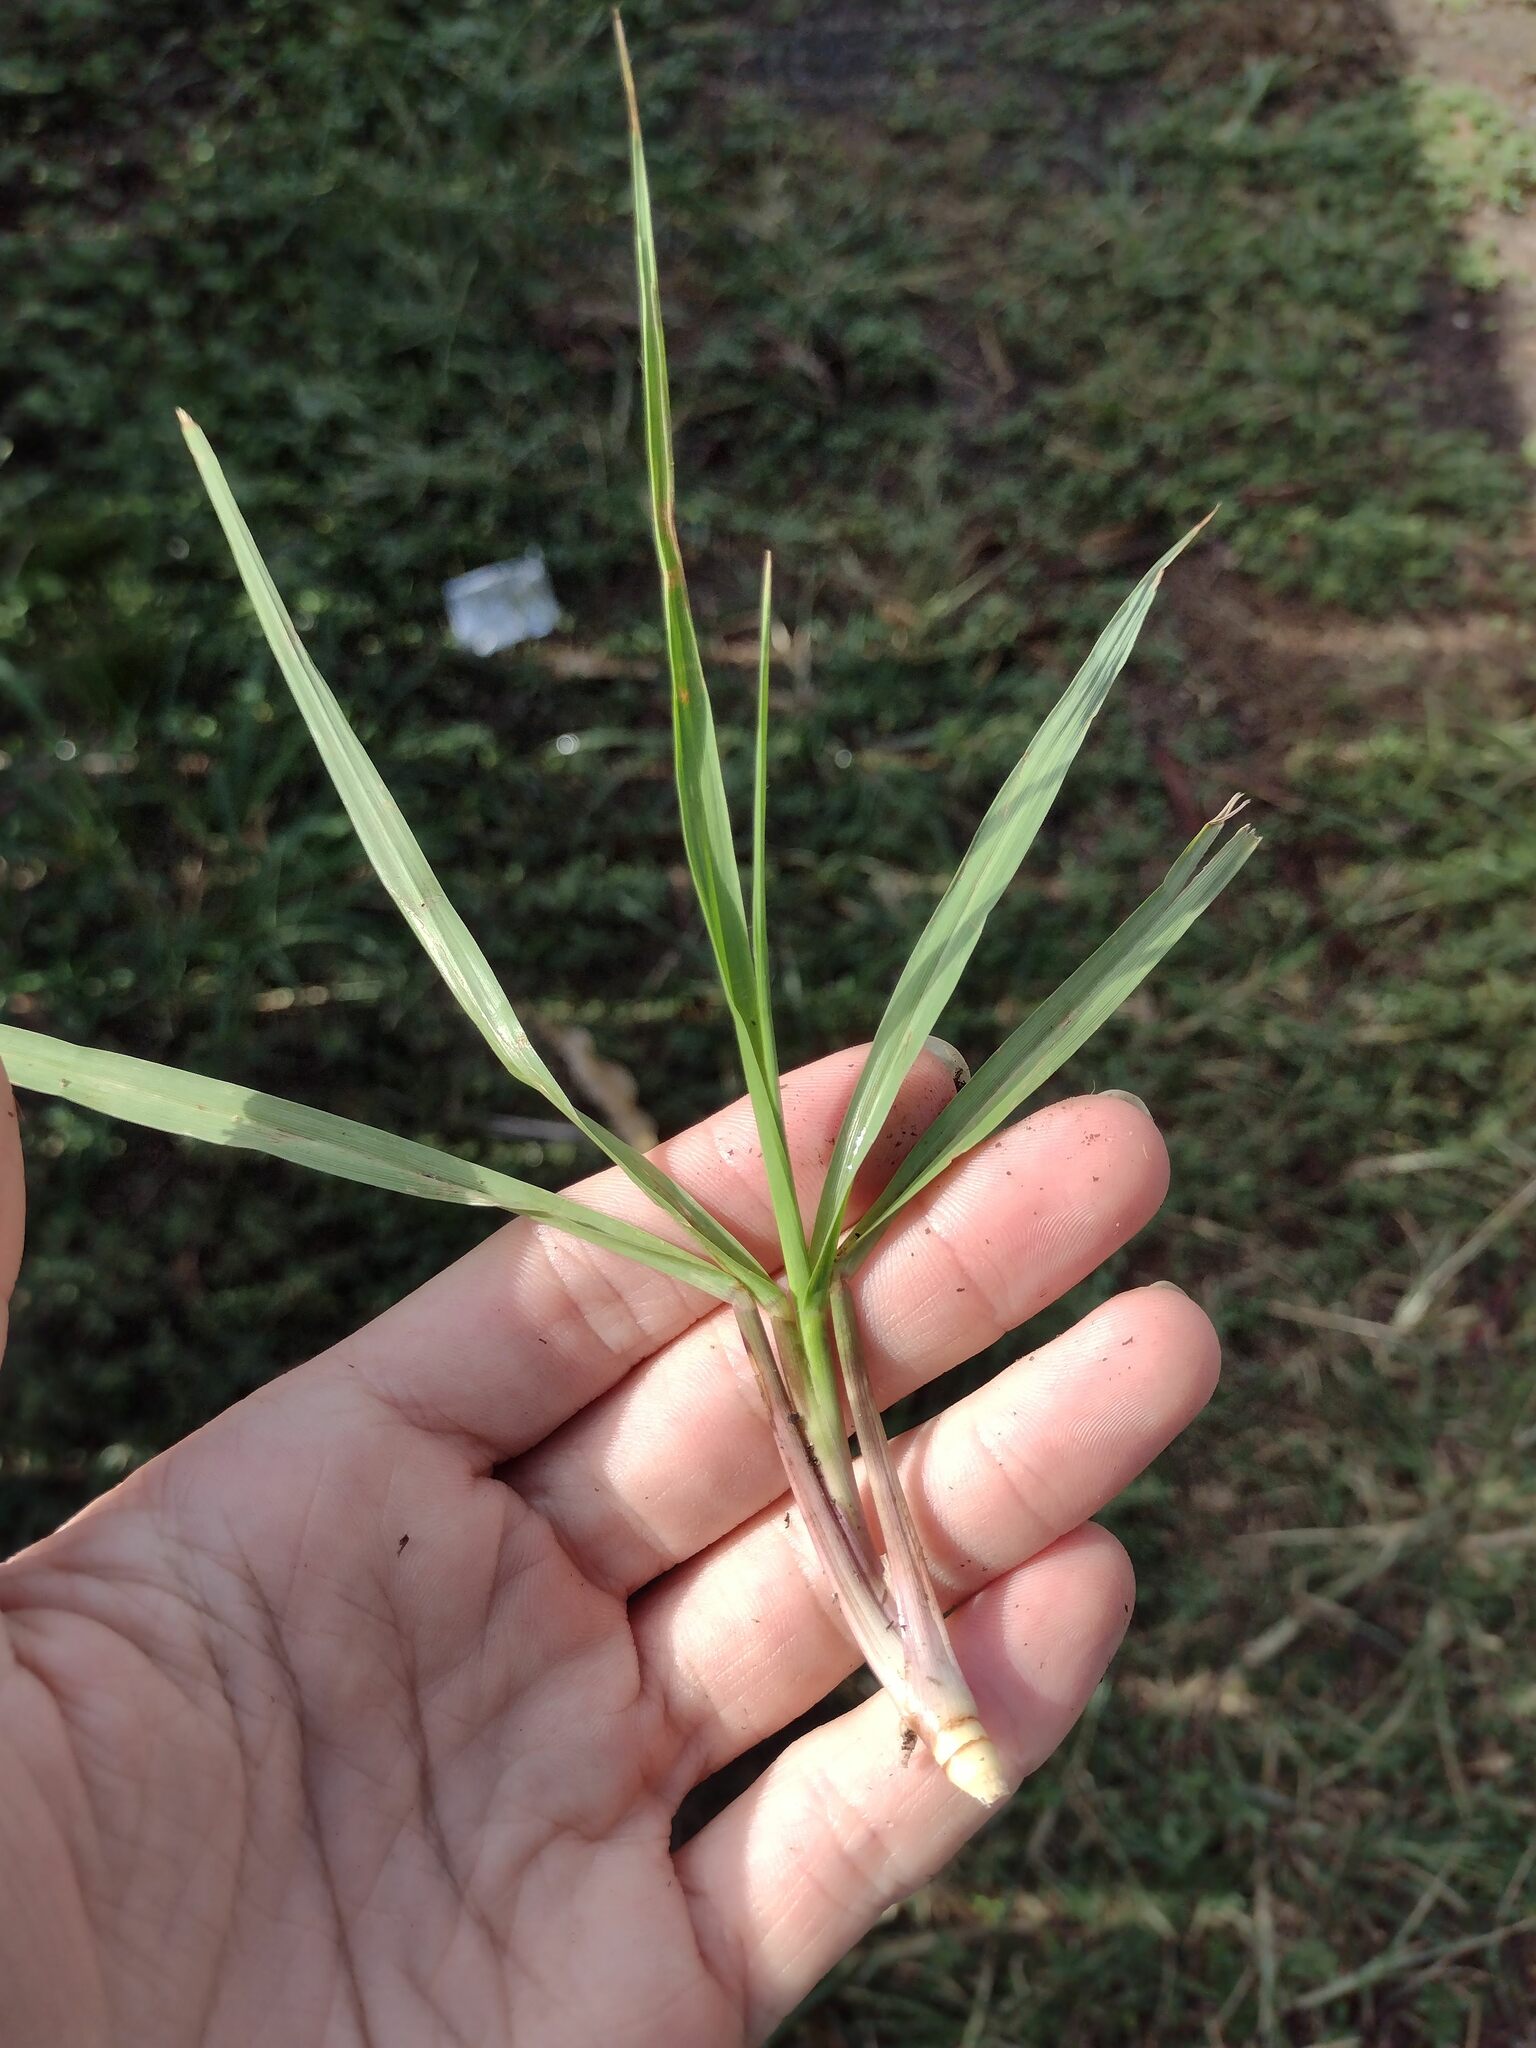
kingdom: Plantae
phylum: Tracheophyta
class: Liliopsida
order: Poales
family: Poaceae
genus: Paspalum
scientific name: Paspalum notatum
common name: Bahiagrass
